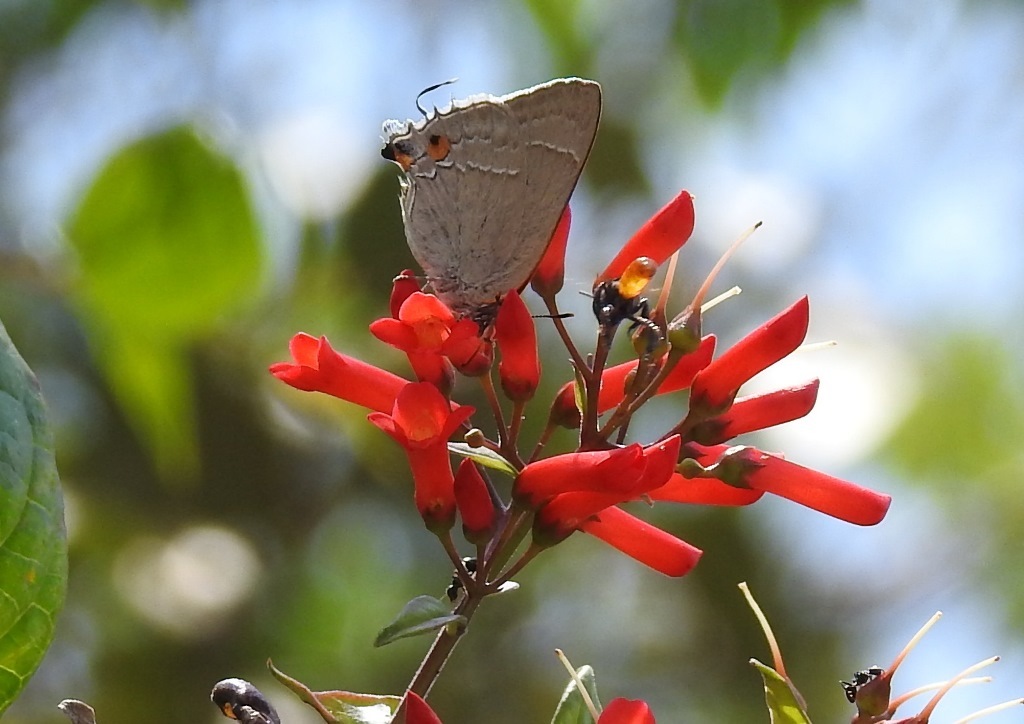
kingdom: Animalia
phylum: Arthropoda
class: Insecta
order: Lepidoptera
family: Lycaenidae
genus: Thecla
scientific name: Thecla marius
